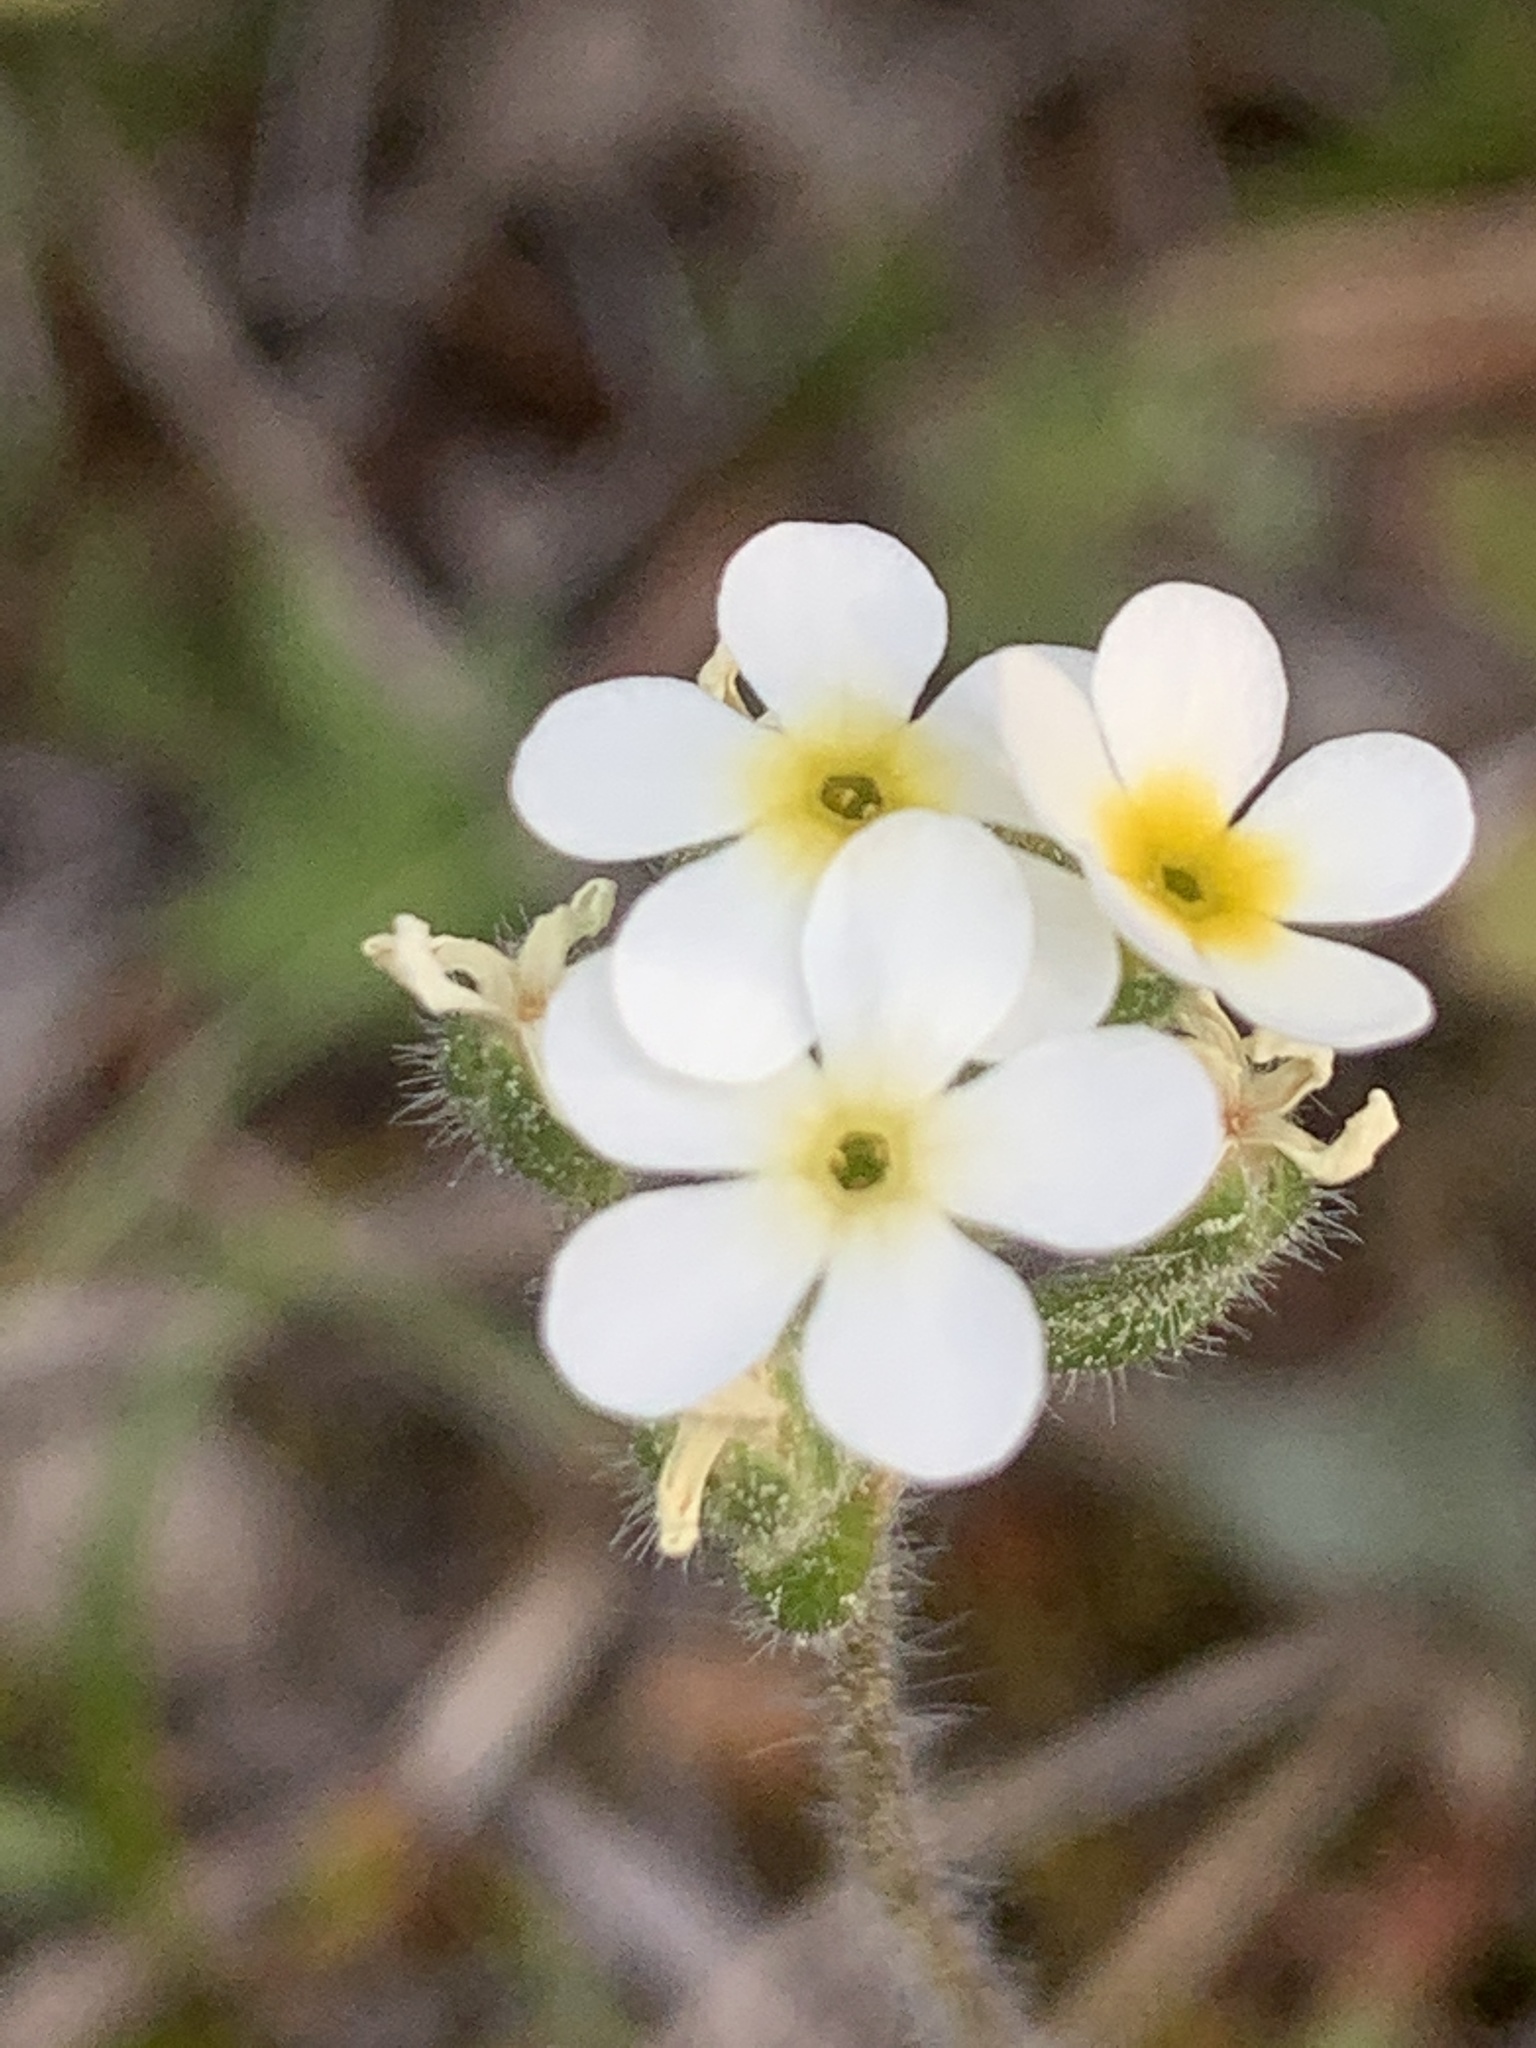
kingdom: Plantae
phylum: Tracheophyta
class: Magnoliopsida
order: Ericales
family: Primulaceae
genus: Androsace
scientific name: Androsace chamaejasme
